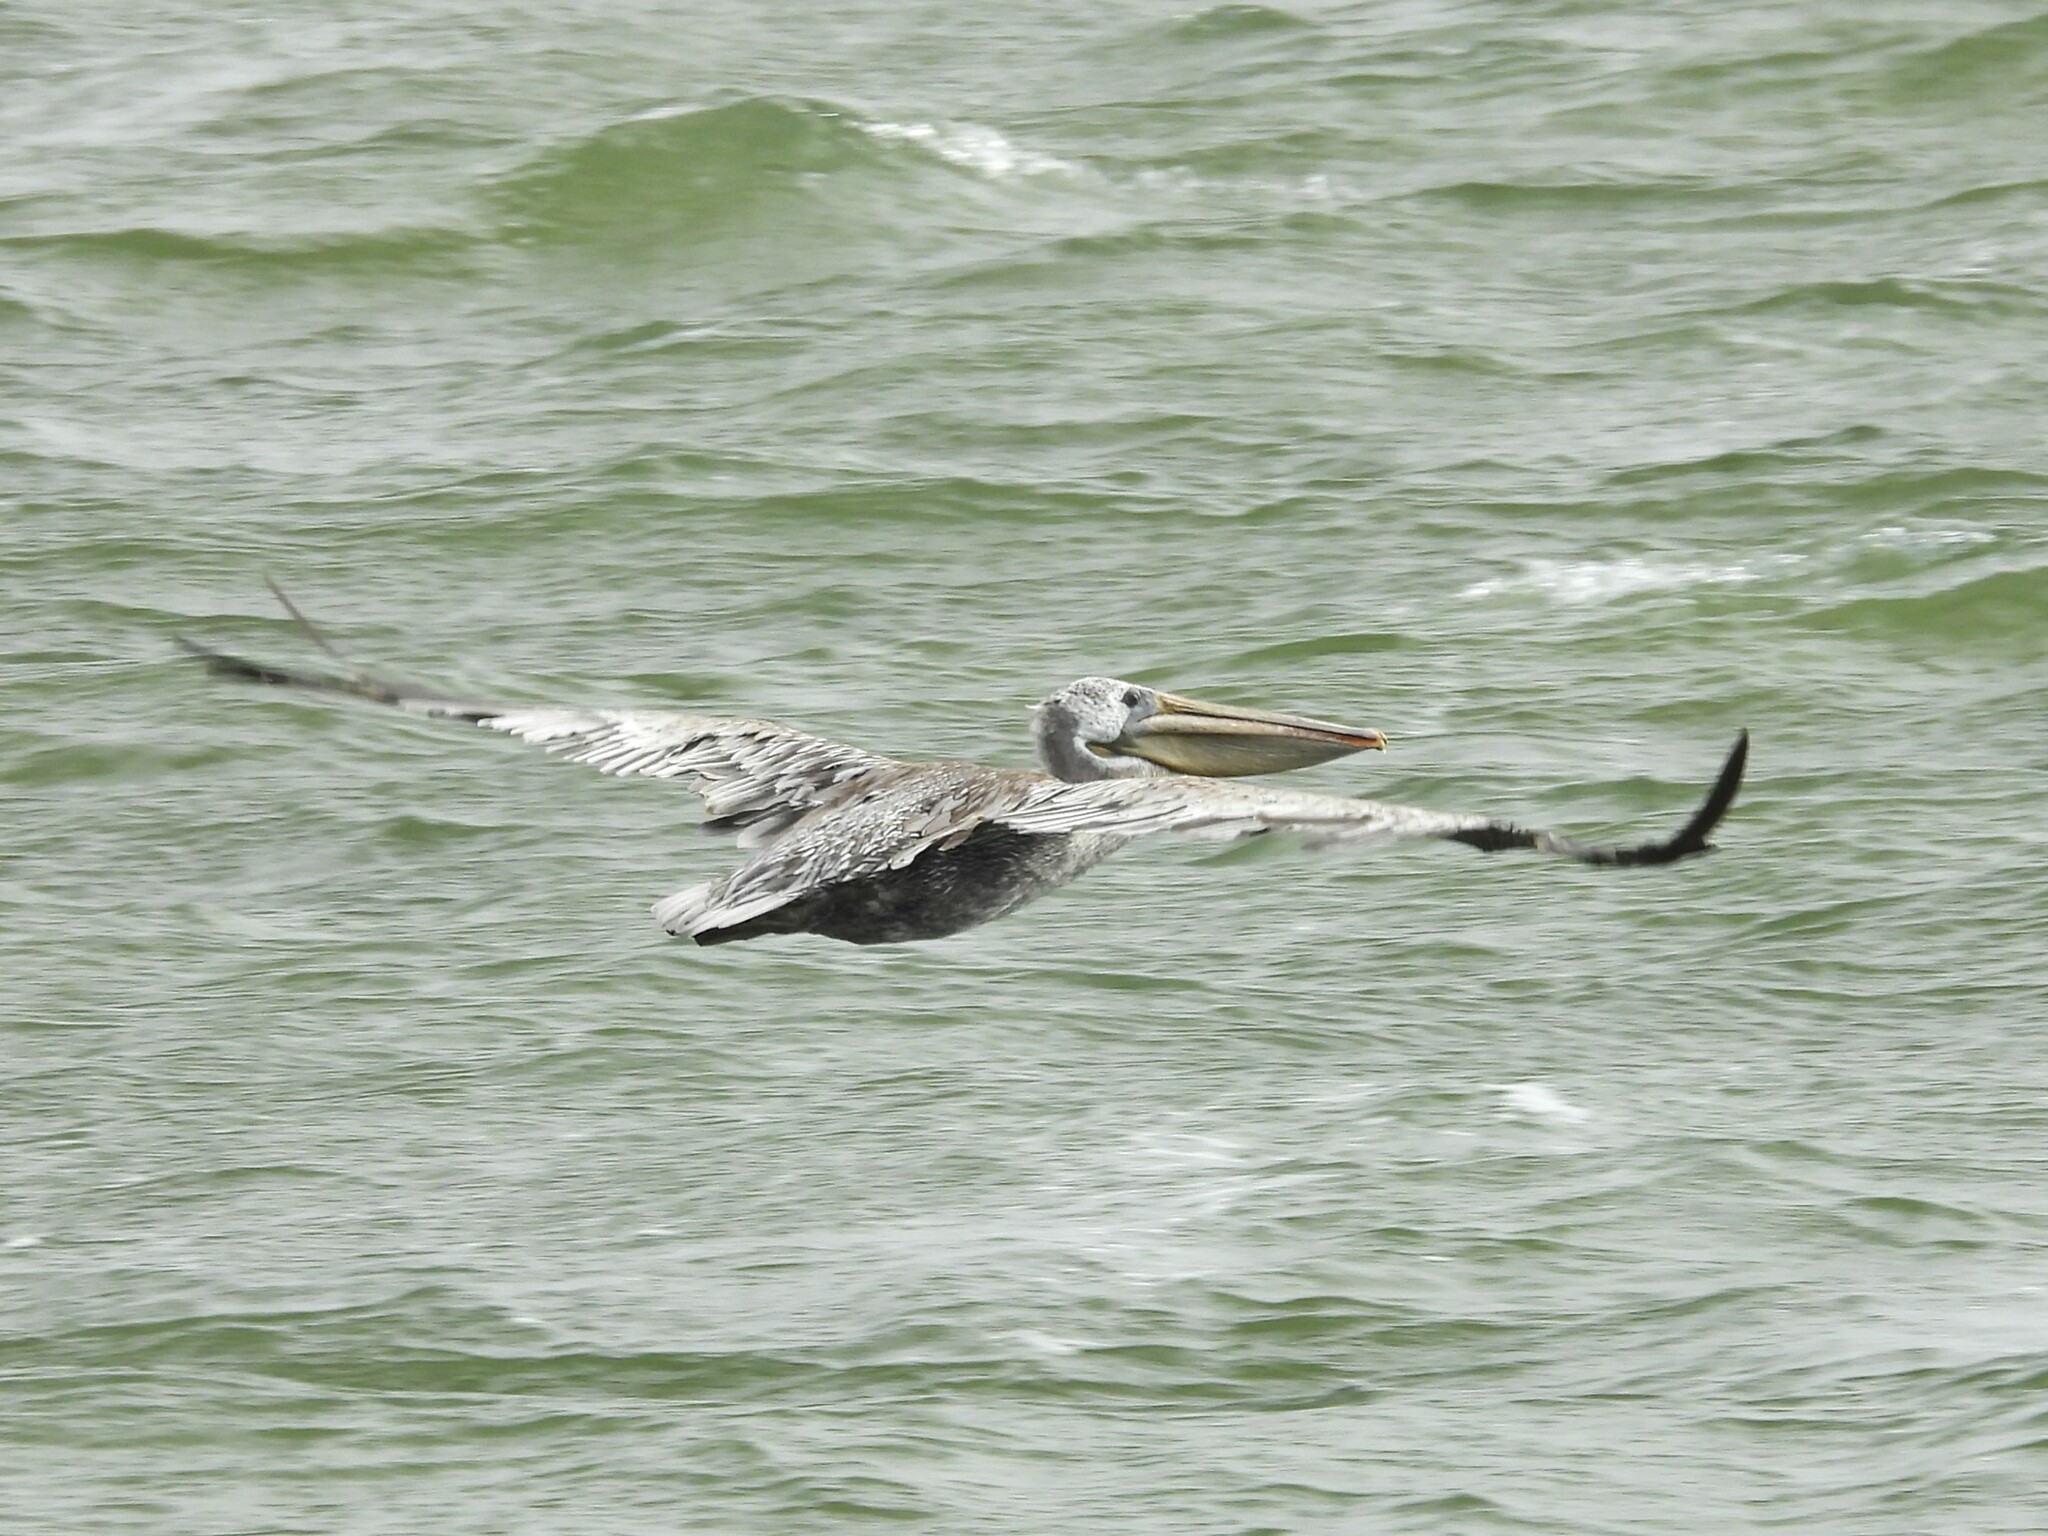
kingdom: Animalia
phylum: Chordata
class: Aves
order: Pelecaniformes
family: Pelecanidae
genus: Pelecanus
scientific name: Pelecanus occidentalis
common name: Brown pelican
